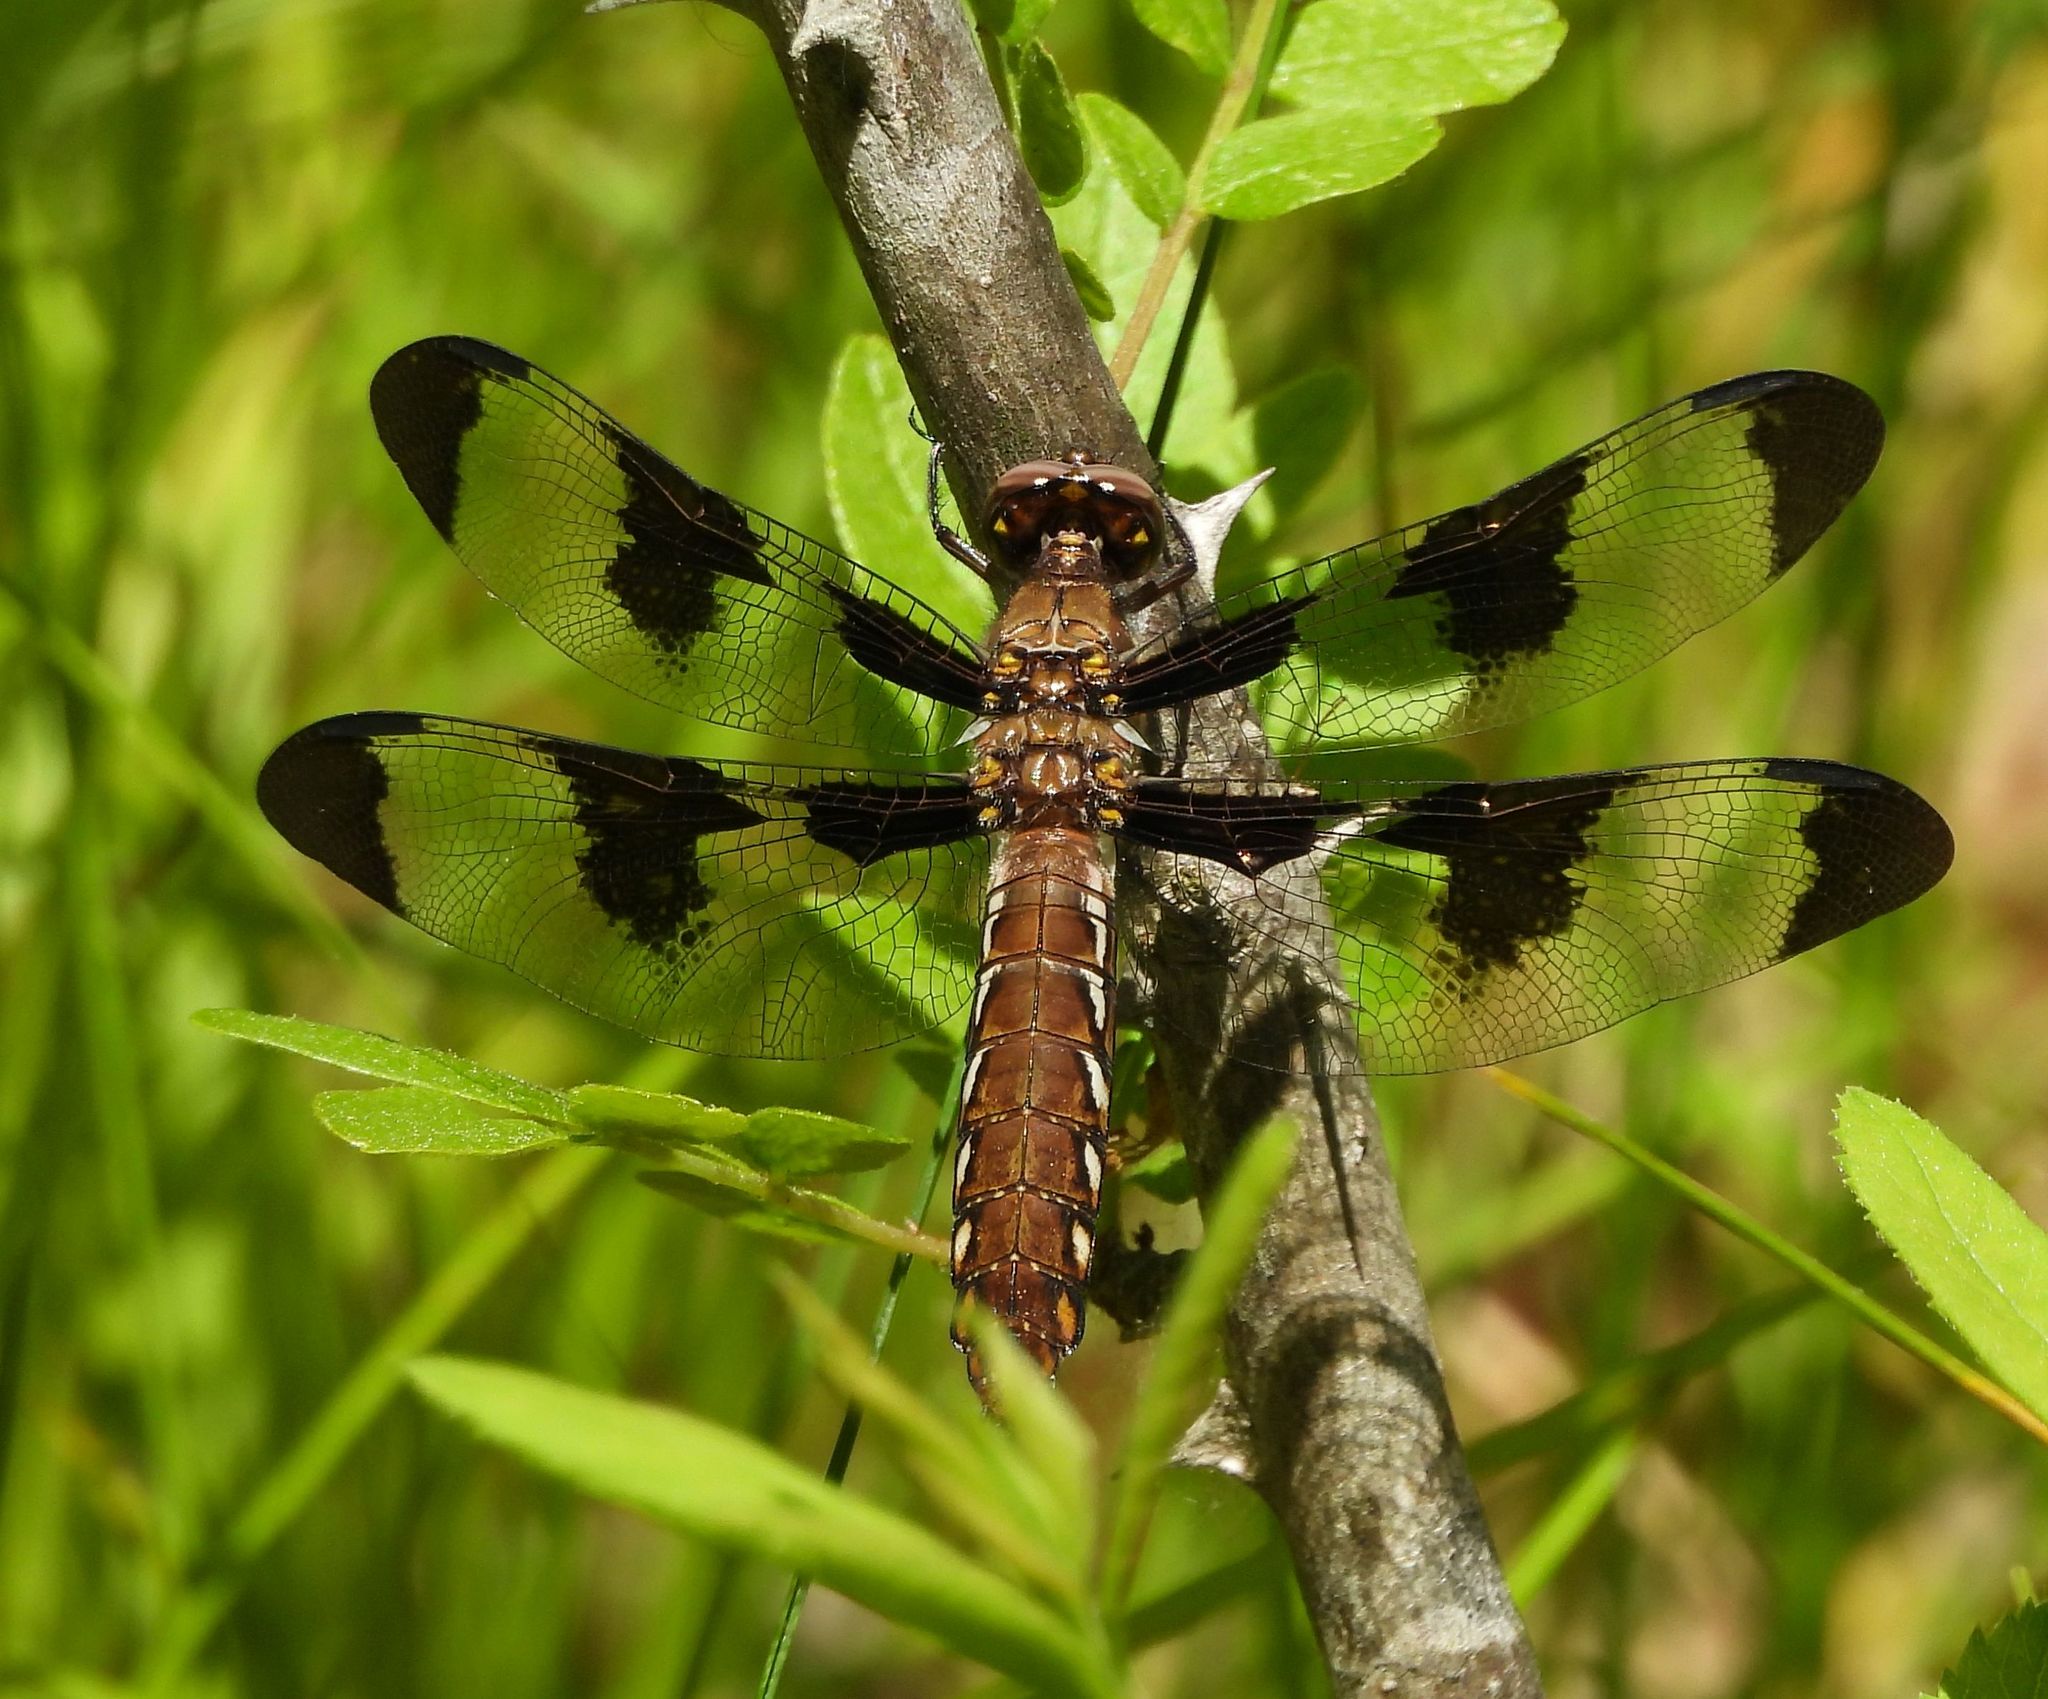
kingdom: Animalia
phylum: Arthropoda
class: Insecta
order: Odonata
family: Libellulidae
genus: Plathemis
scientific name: Plathemis lydia
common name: Common whitetail
